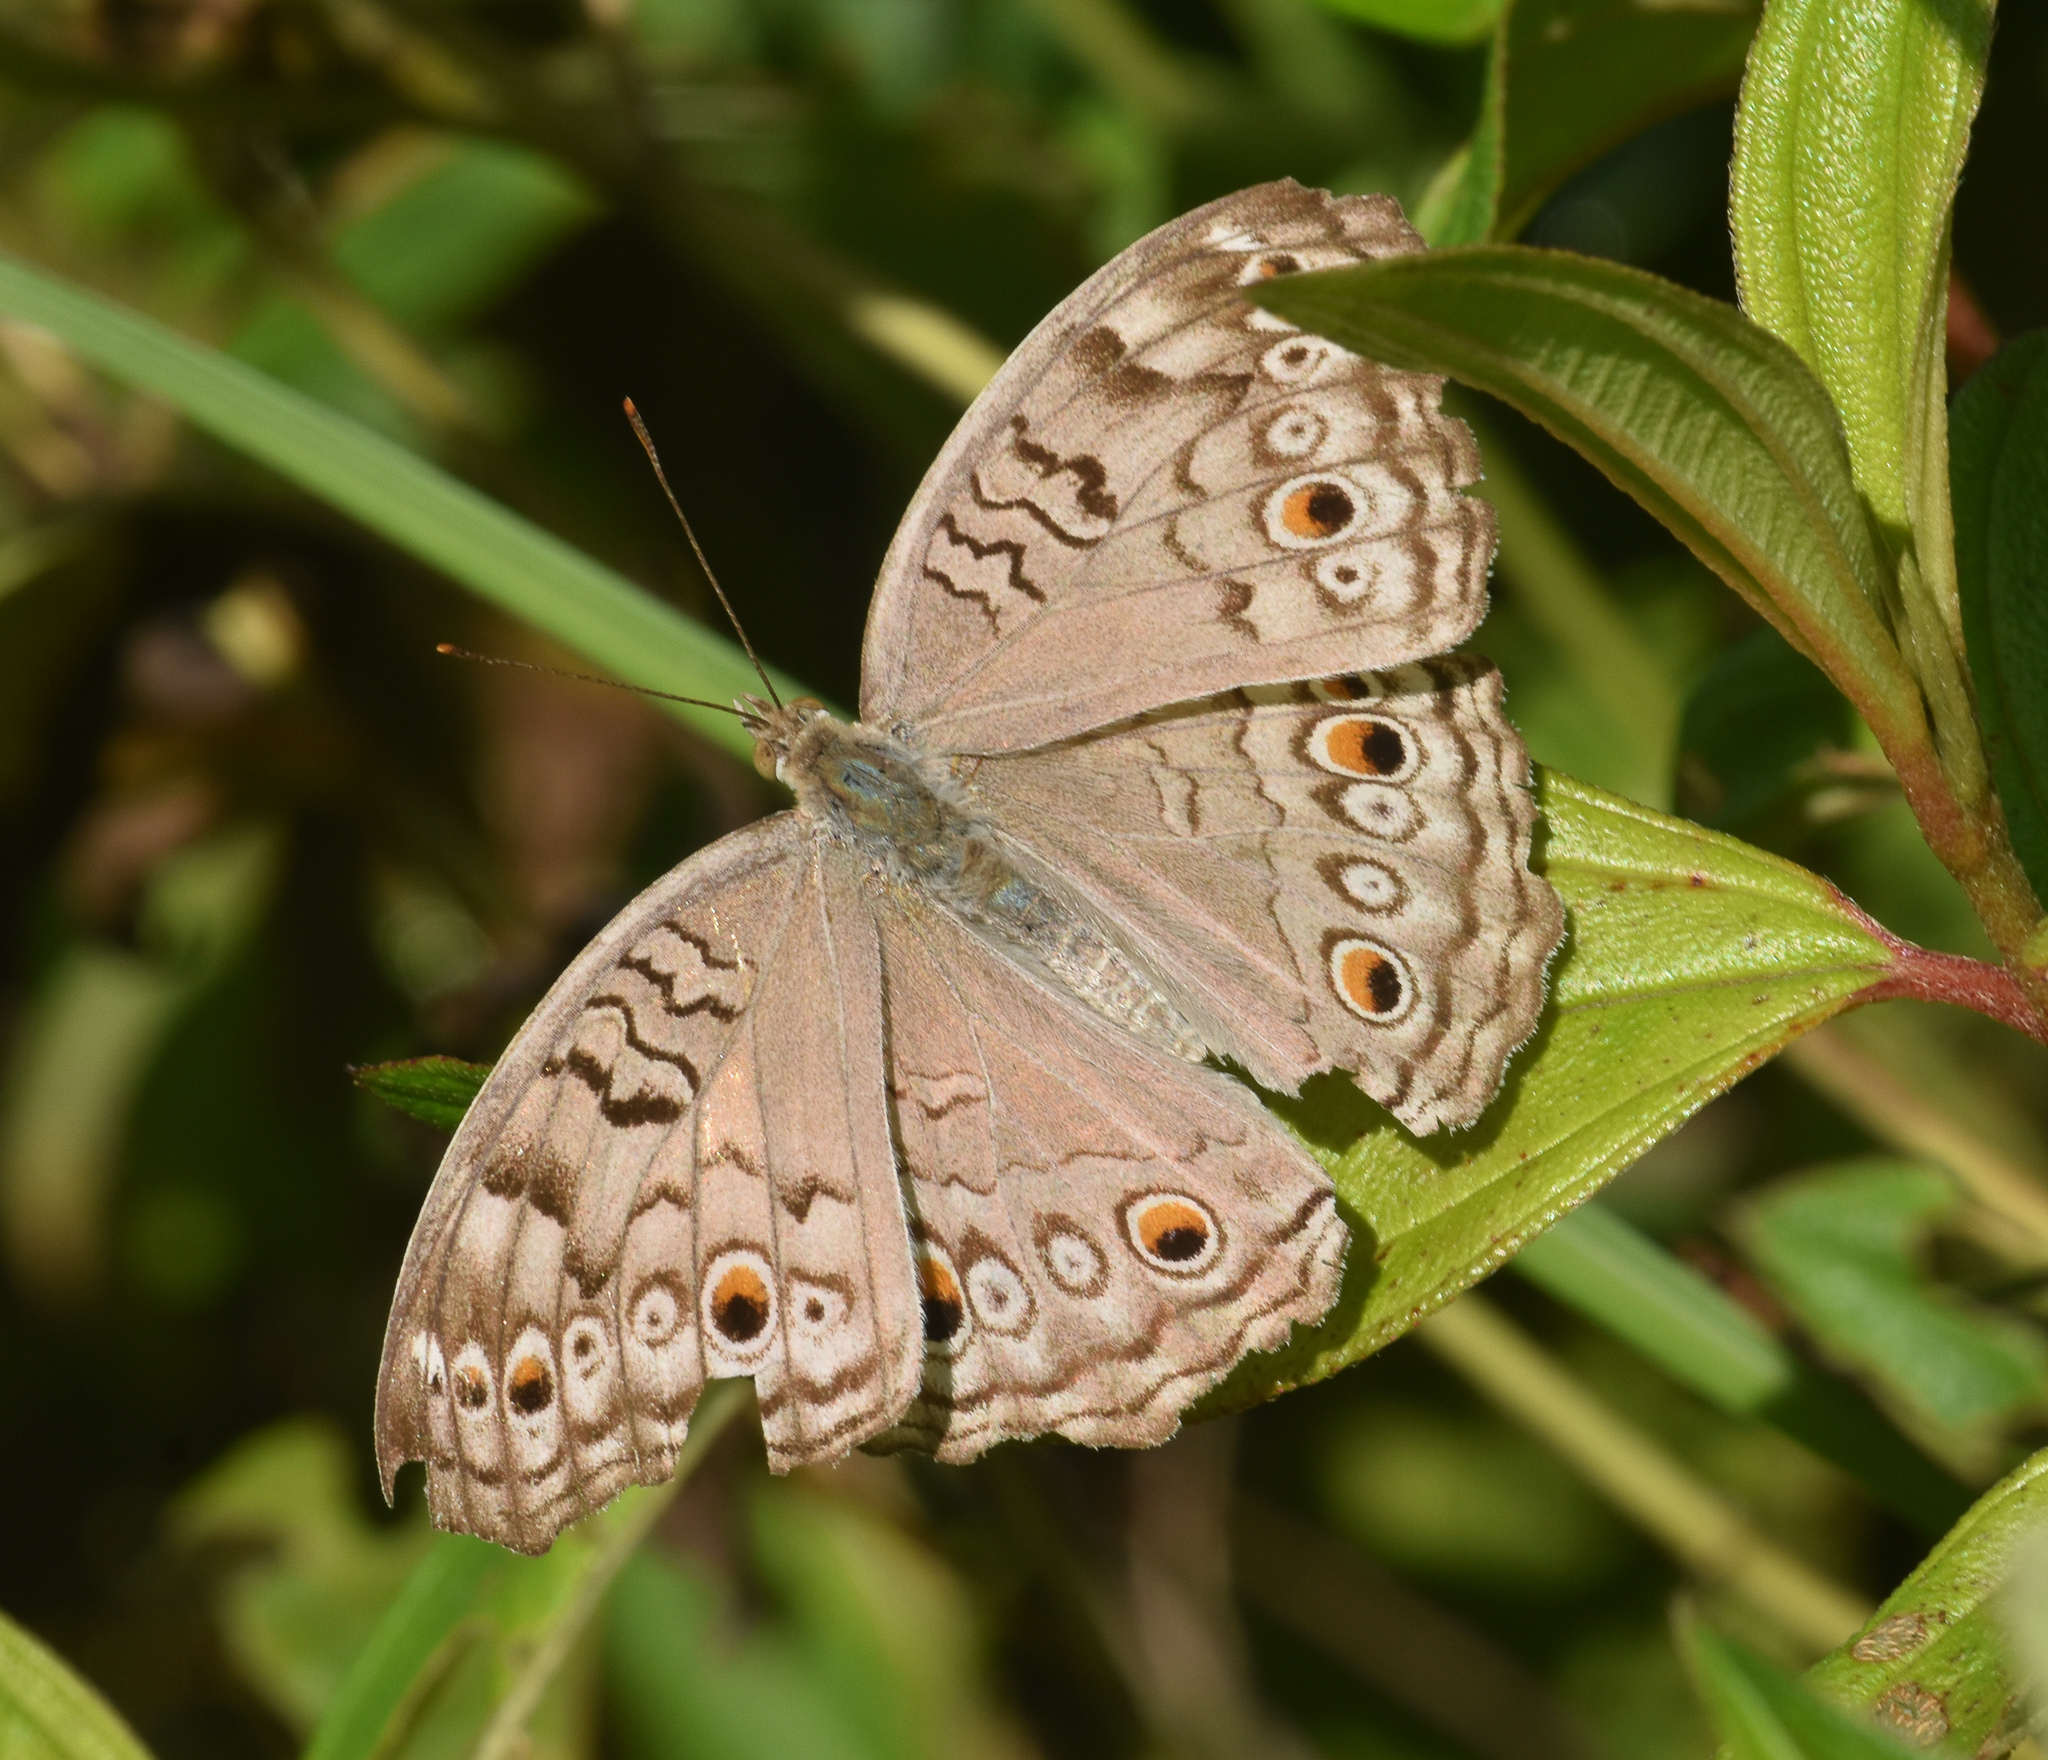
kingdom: Animalia
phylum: Arthropoda
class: Insecta
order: Lepidoptera
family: Nymphalidae
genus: Junonia
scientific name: Junonia atlites
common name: Grey pansy
